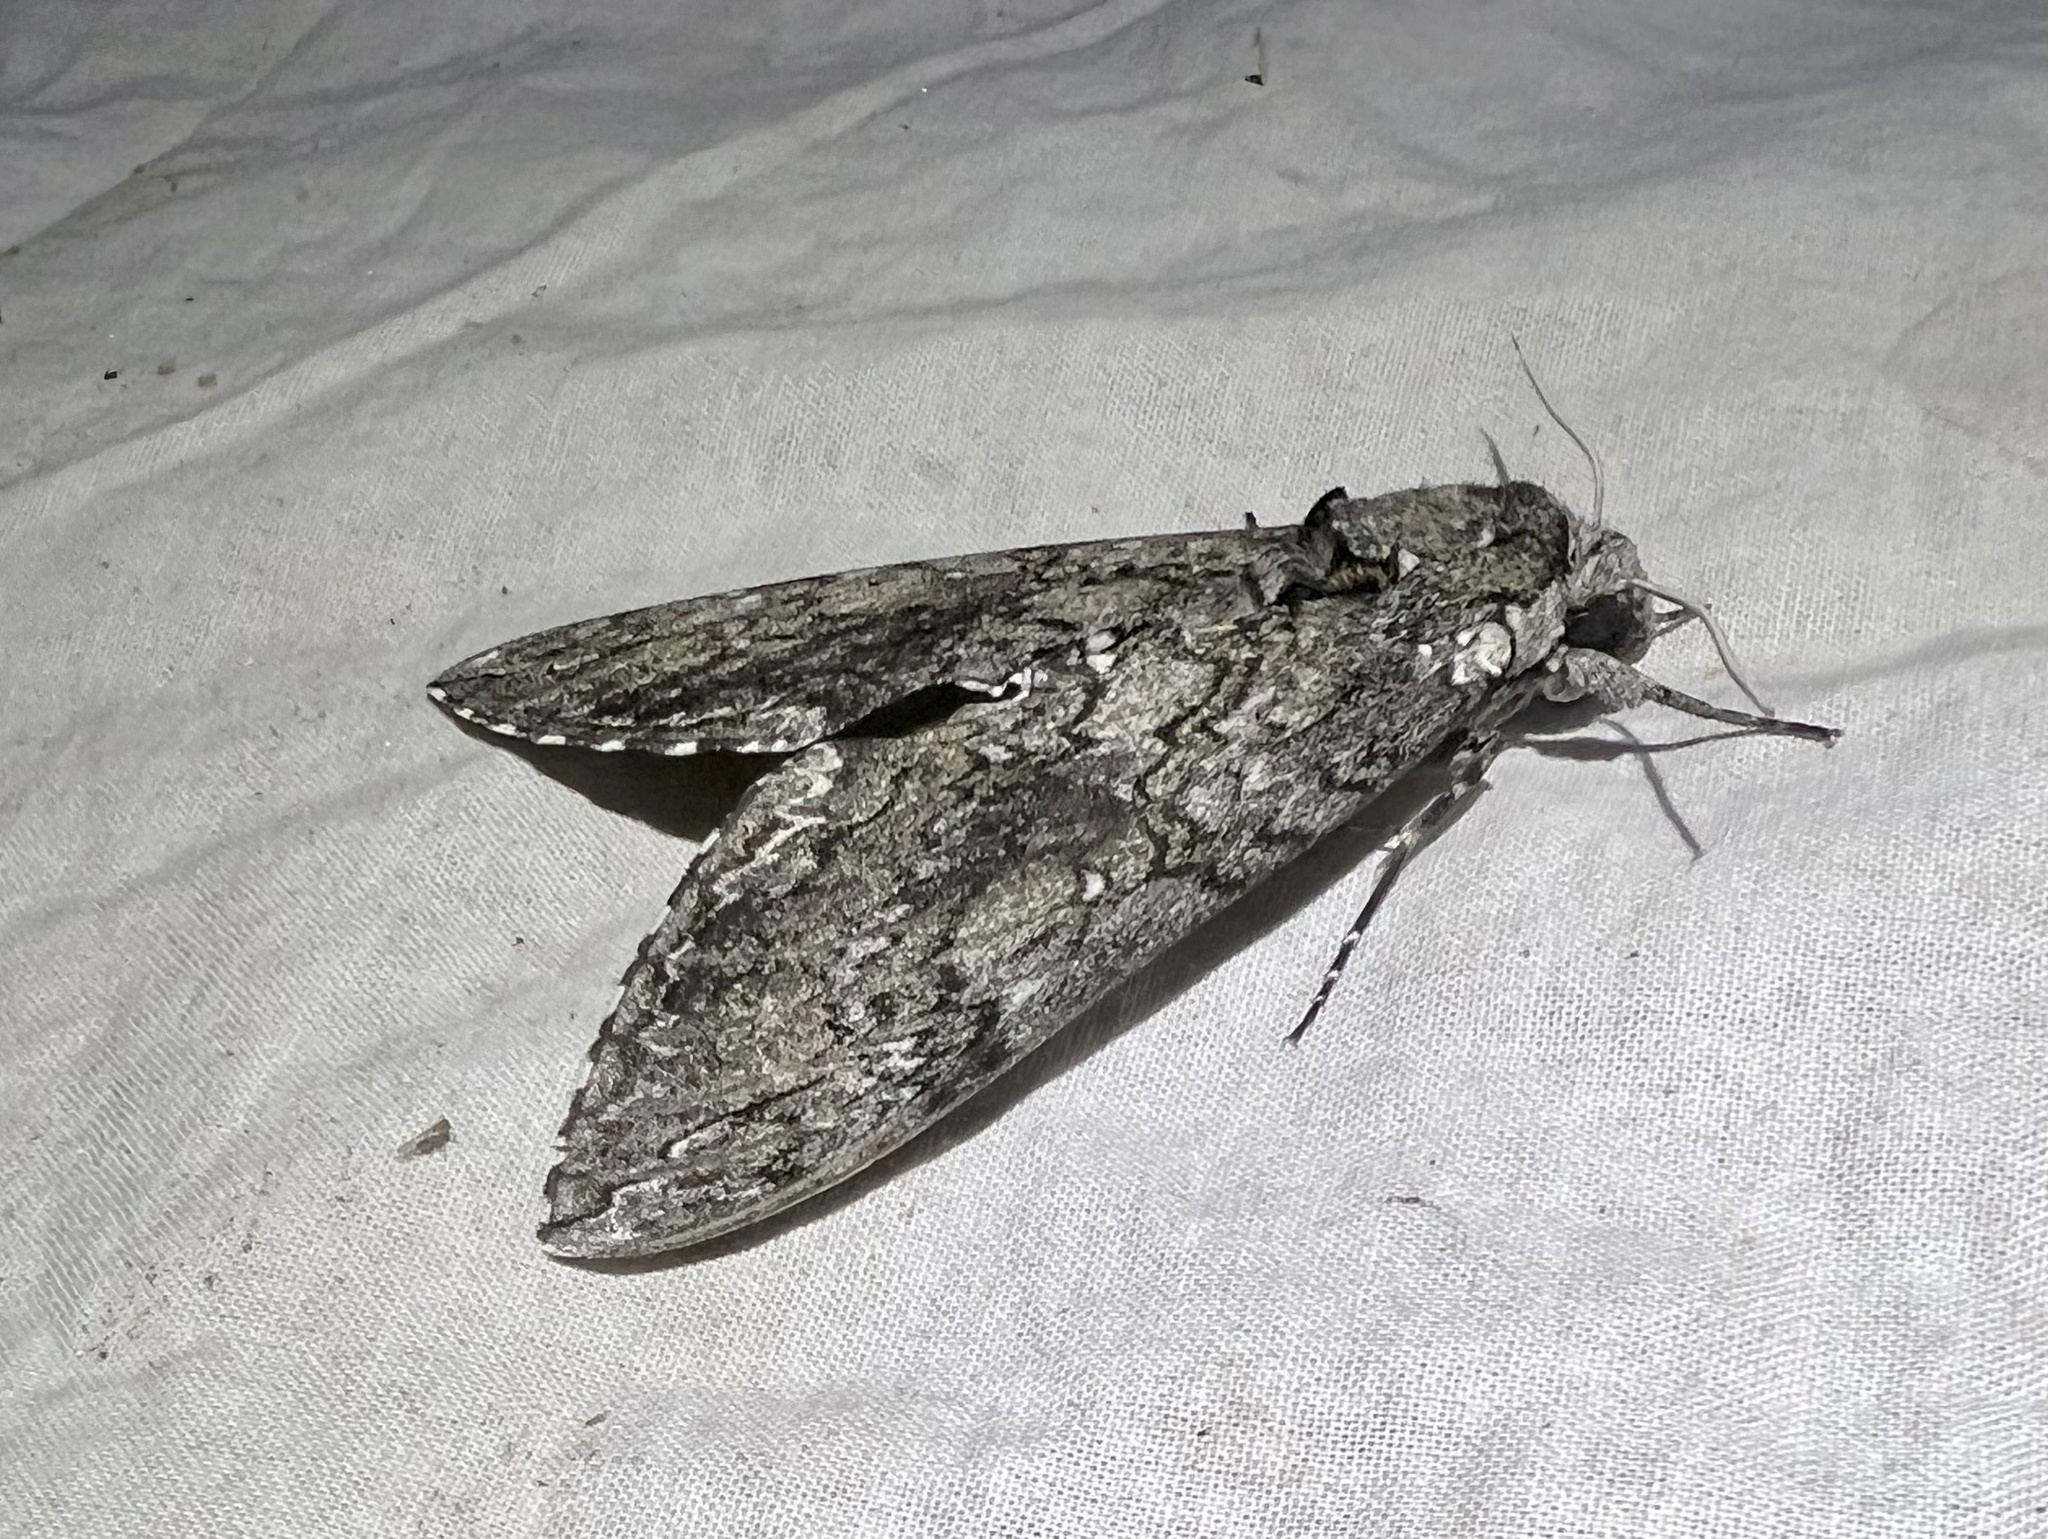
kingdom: Animalia
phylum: Arthropoda
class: Insecta
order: Lepidoptera
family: Sphingidae
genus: Manduca
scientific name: Manduca sexta
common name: Carolina sphinx
